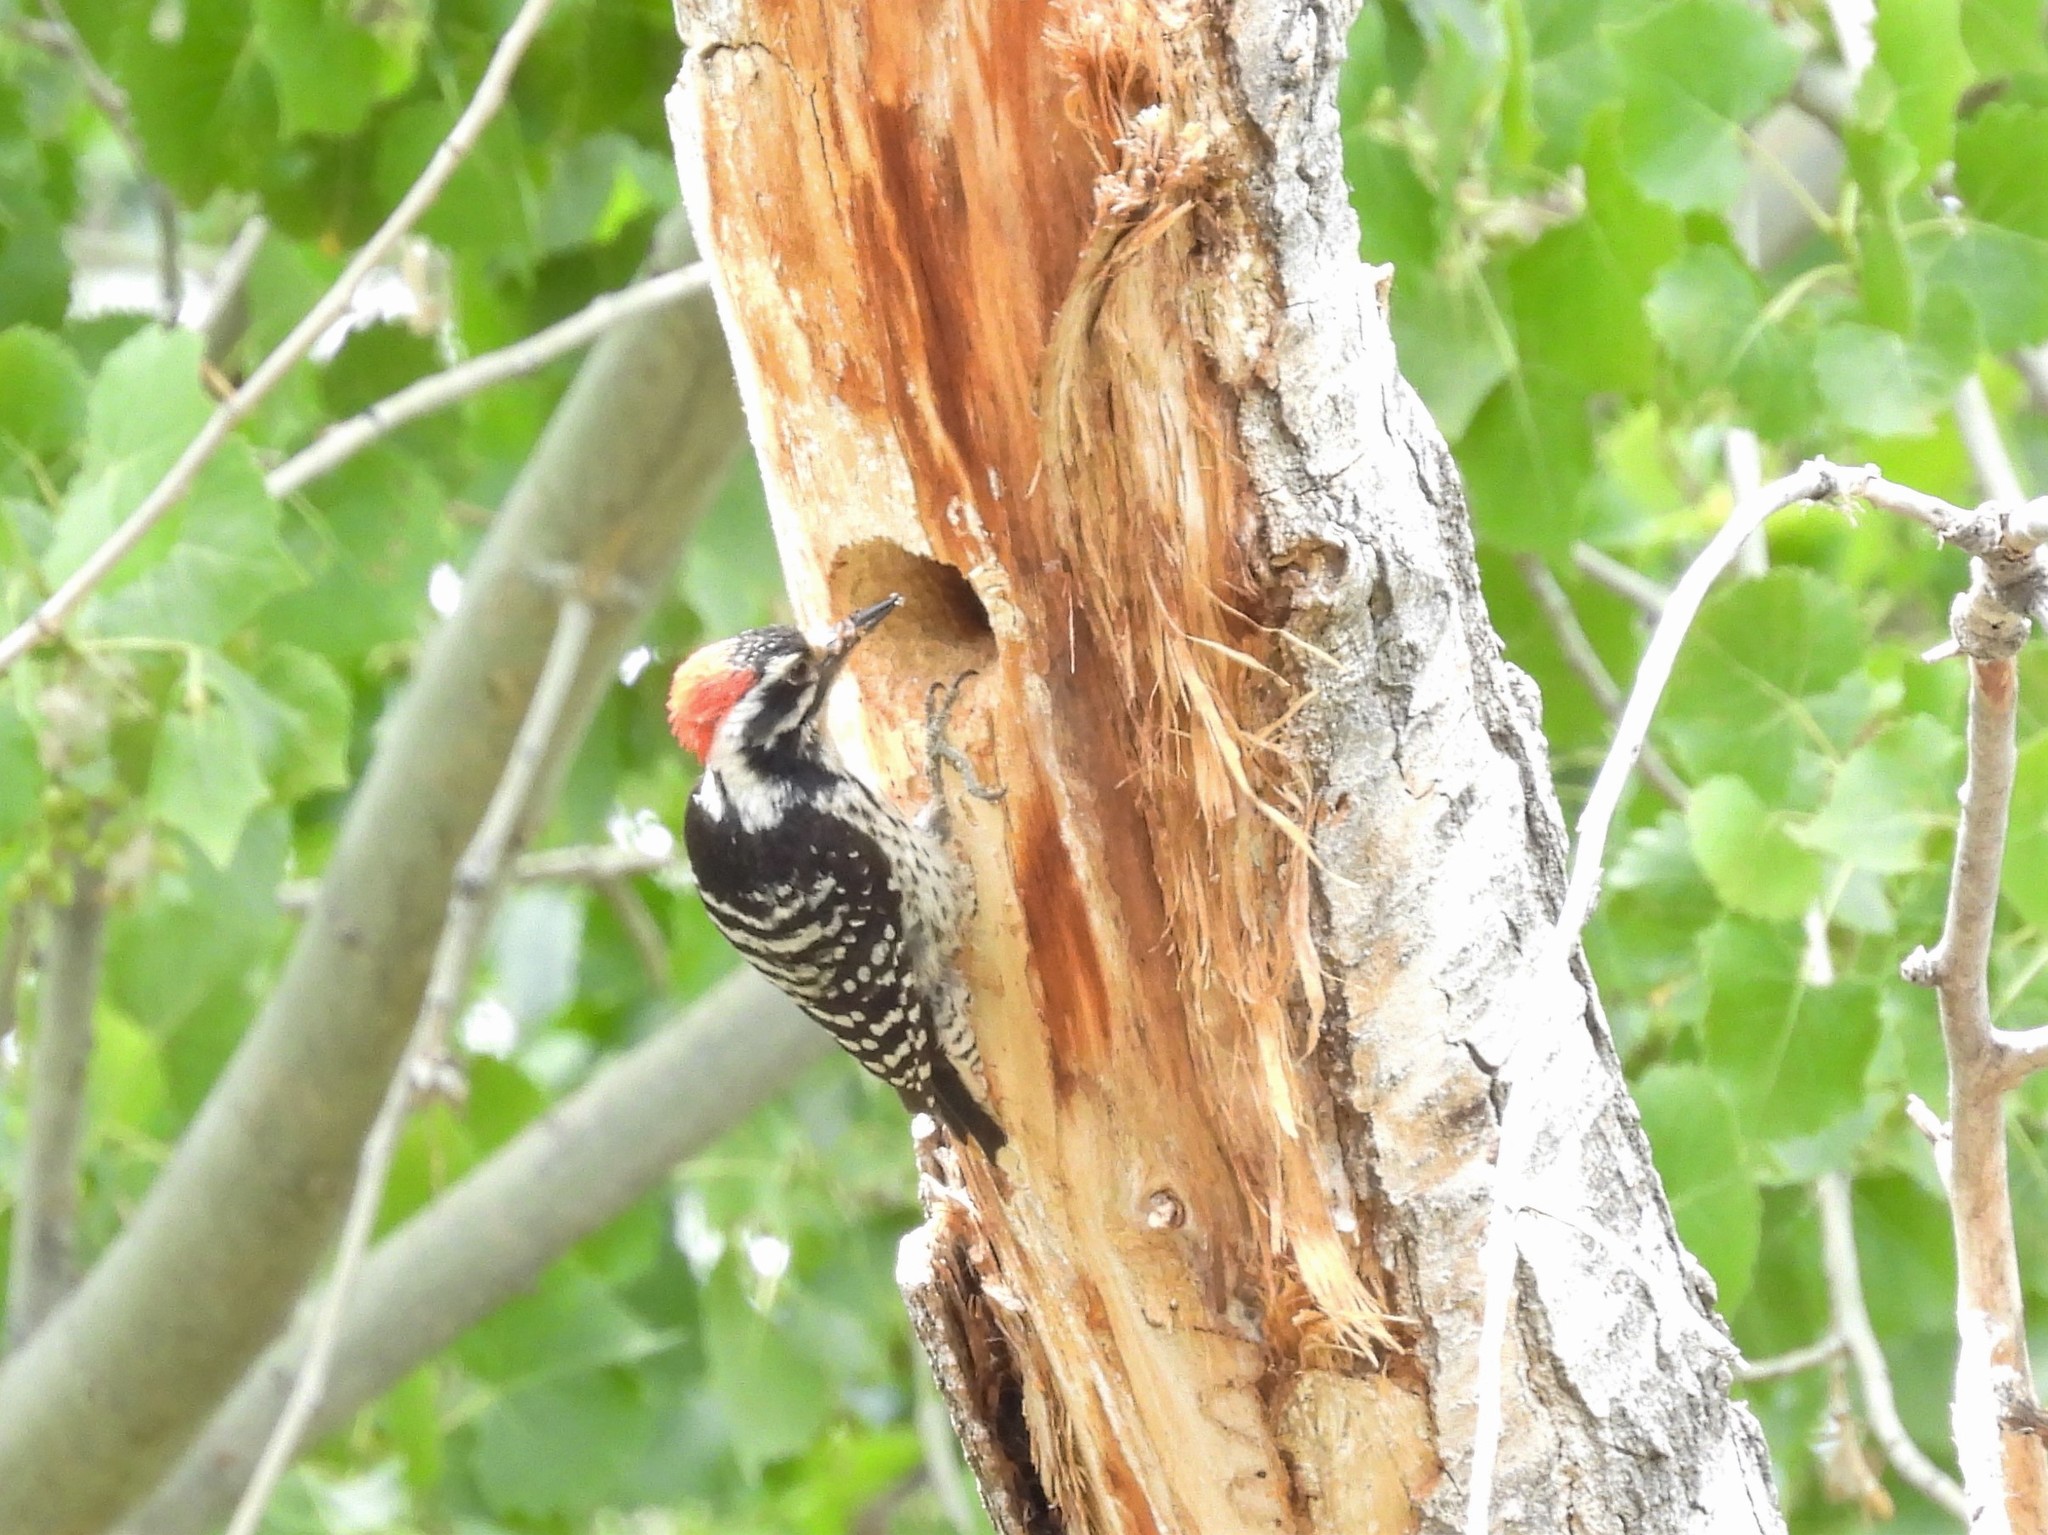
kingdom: Animalia
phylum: Chordata
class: Aves
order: Piciformes
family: Picidae
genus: Dryobates
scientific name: Dryobates nuttallii
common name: Nuttall's woodpecker
